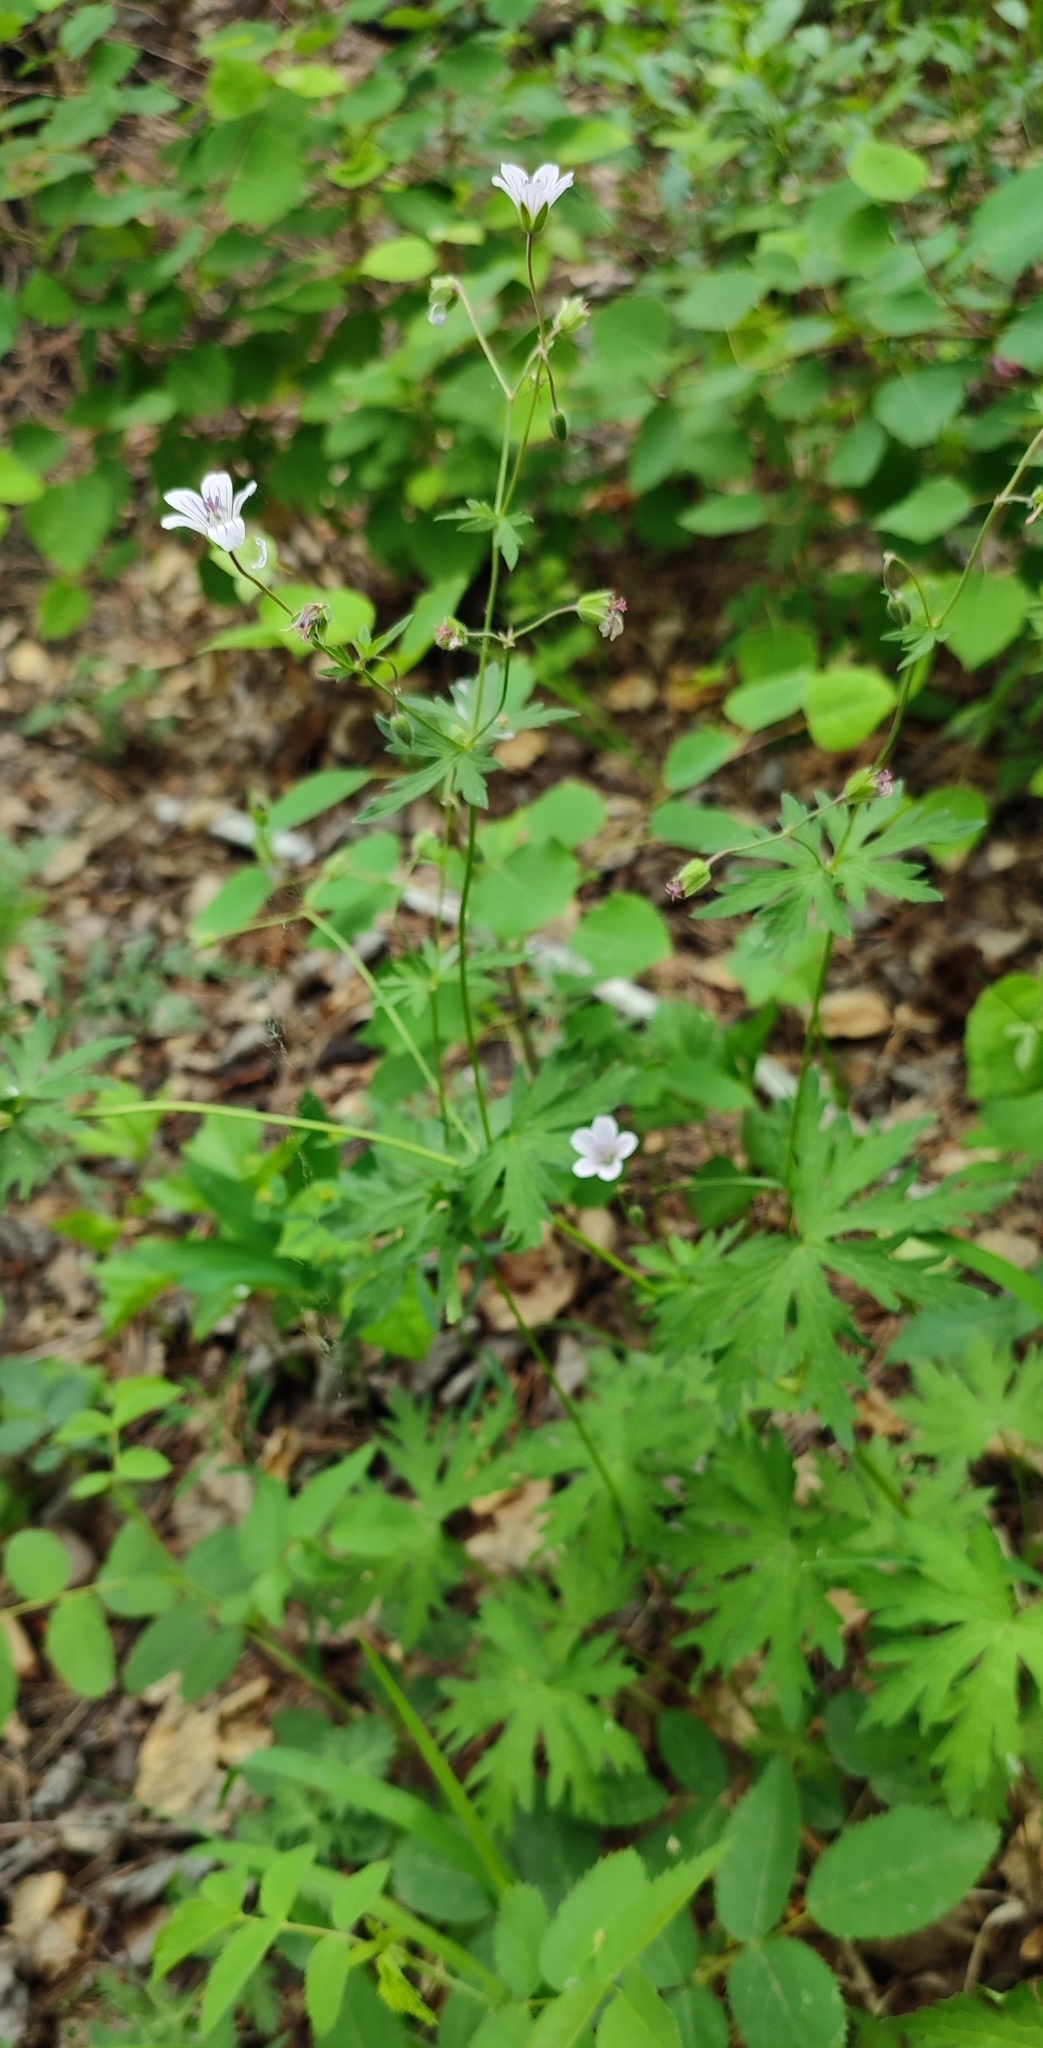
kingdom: Plantae
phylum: Tracheophyta
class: Magnoliopsida
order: Geraniales
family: Geraniaceae
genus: Geranium
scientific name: Geranium pseudosibiricum
